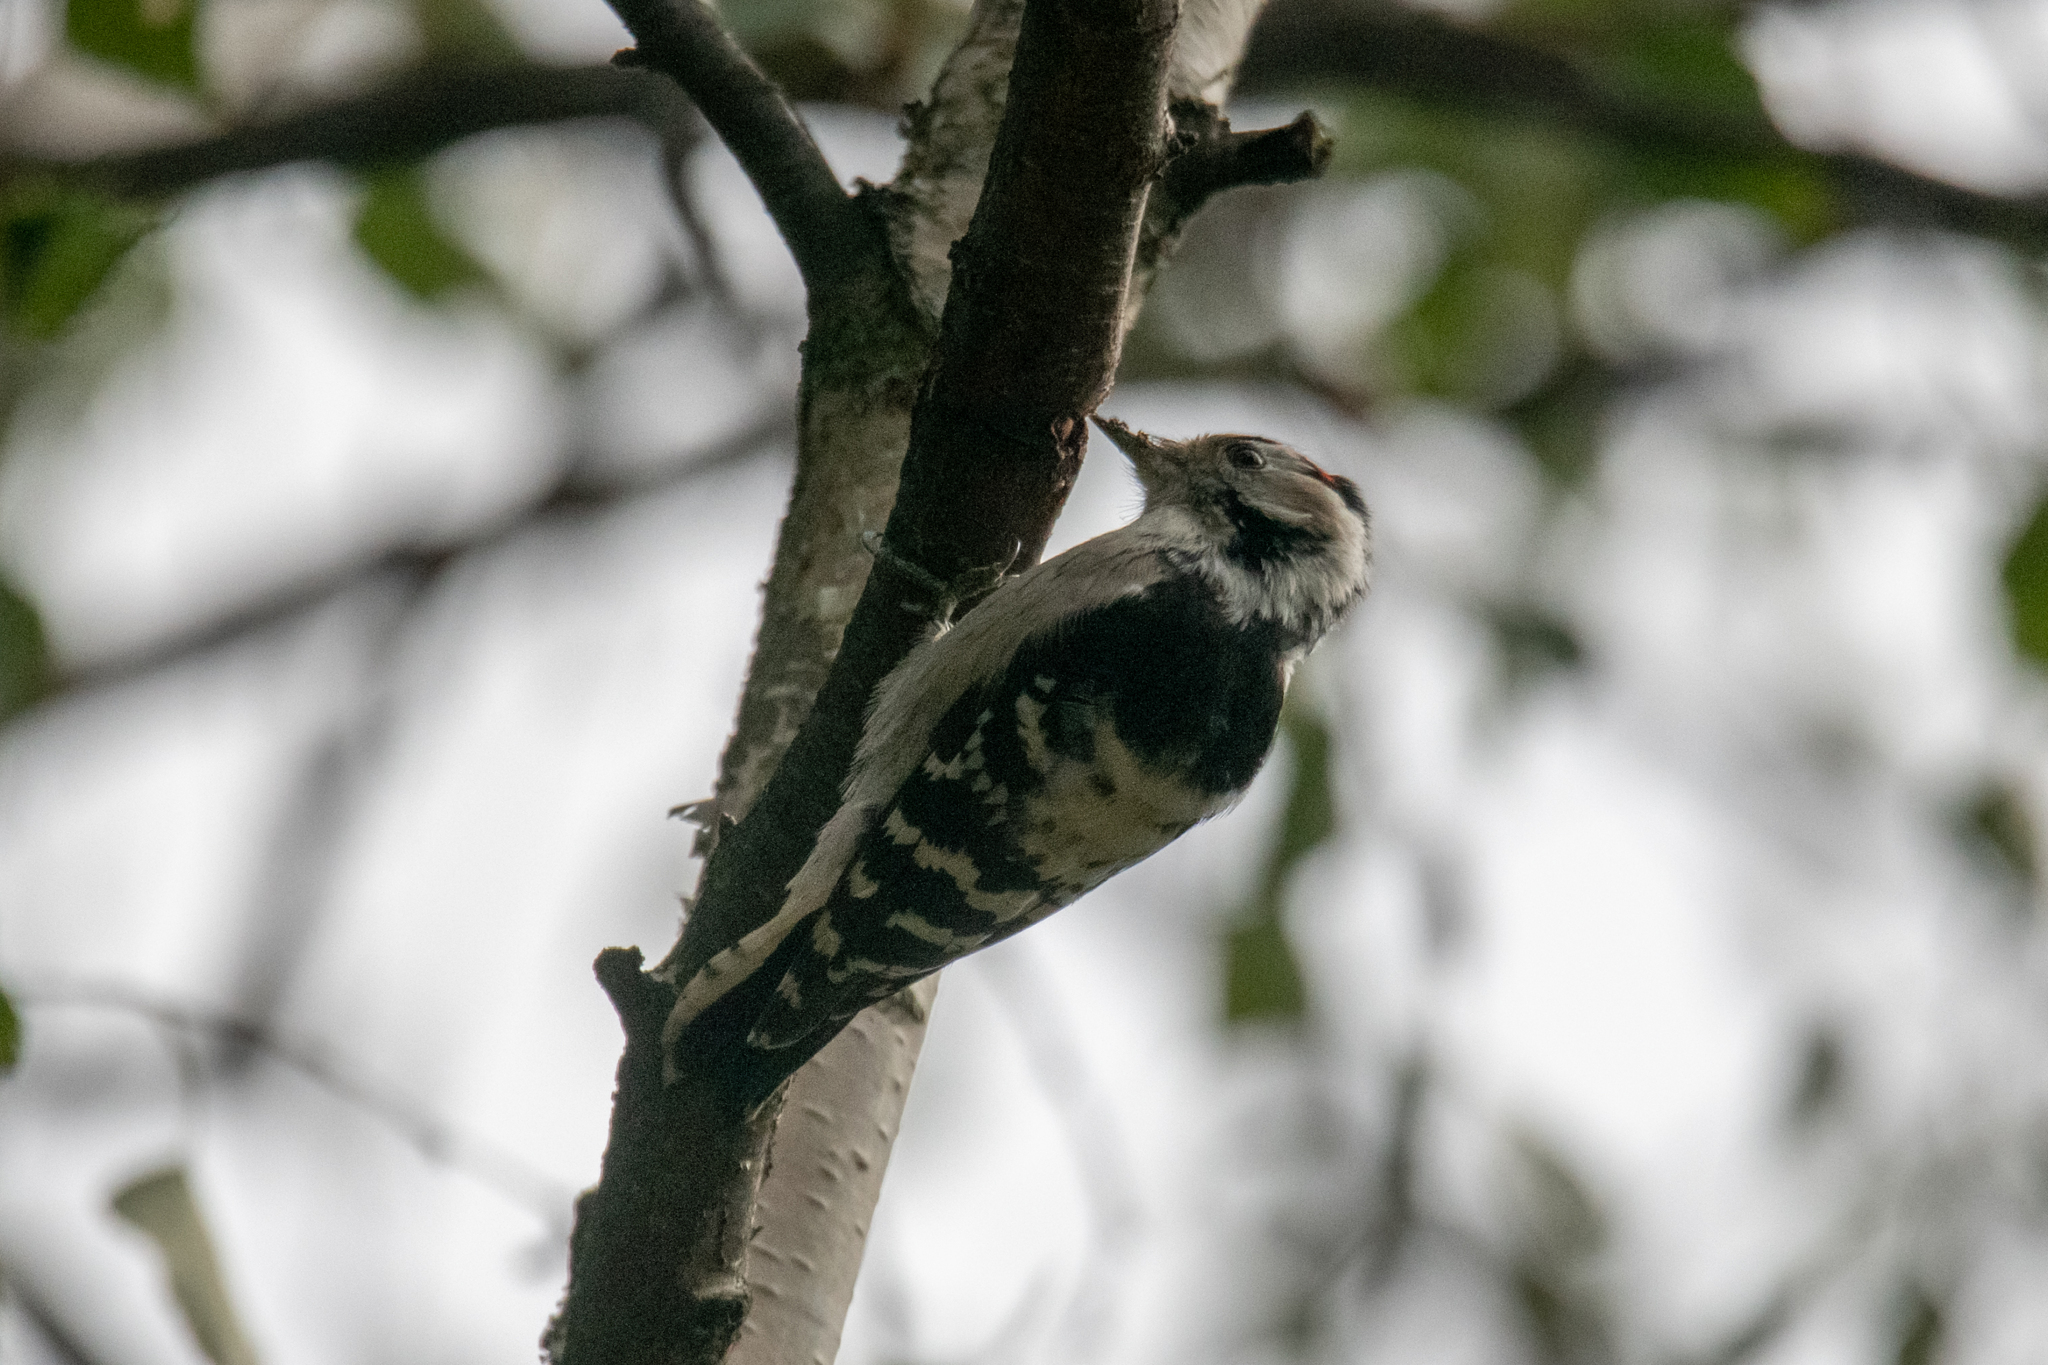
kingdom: Animalia
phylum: Chordata
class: Aves
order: Piciformes
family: Picidae
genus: Dryobates
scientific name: Dryobates minor
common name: Lesser spotted woodpecker
